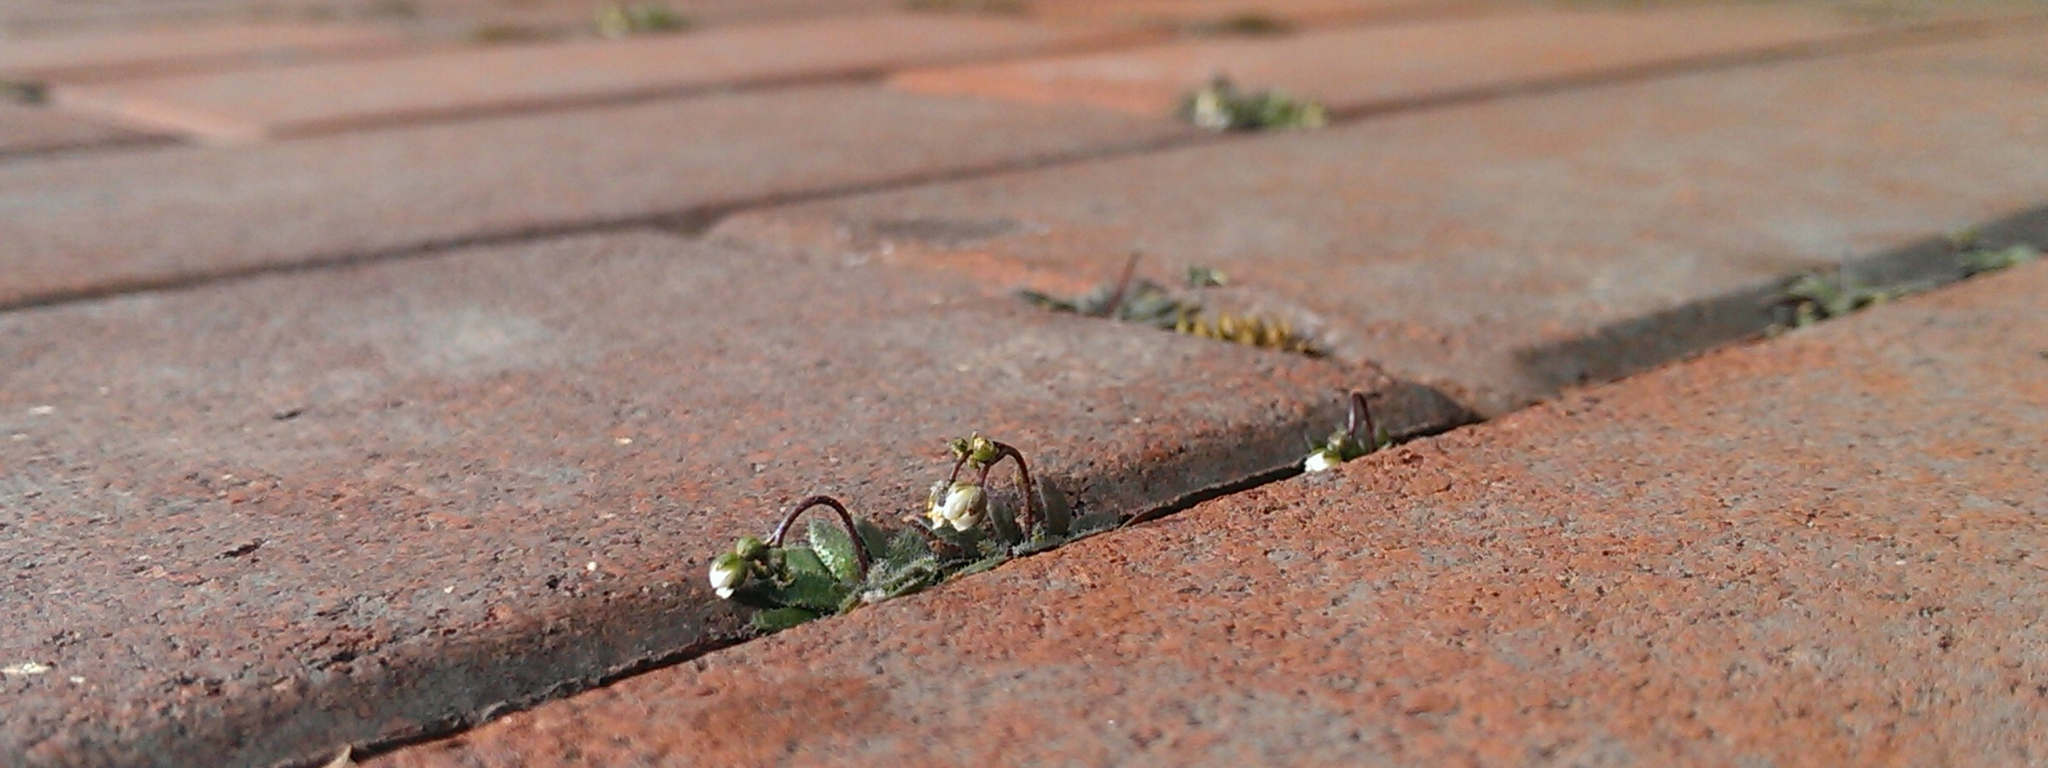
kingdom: Plantae
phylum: Tracheophyta
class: Magnoliopsida
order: Brassicales
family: Brassicaceae
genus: Draba
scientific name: Draba verna
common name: Spring draba
